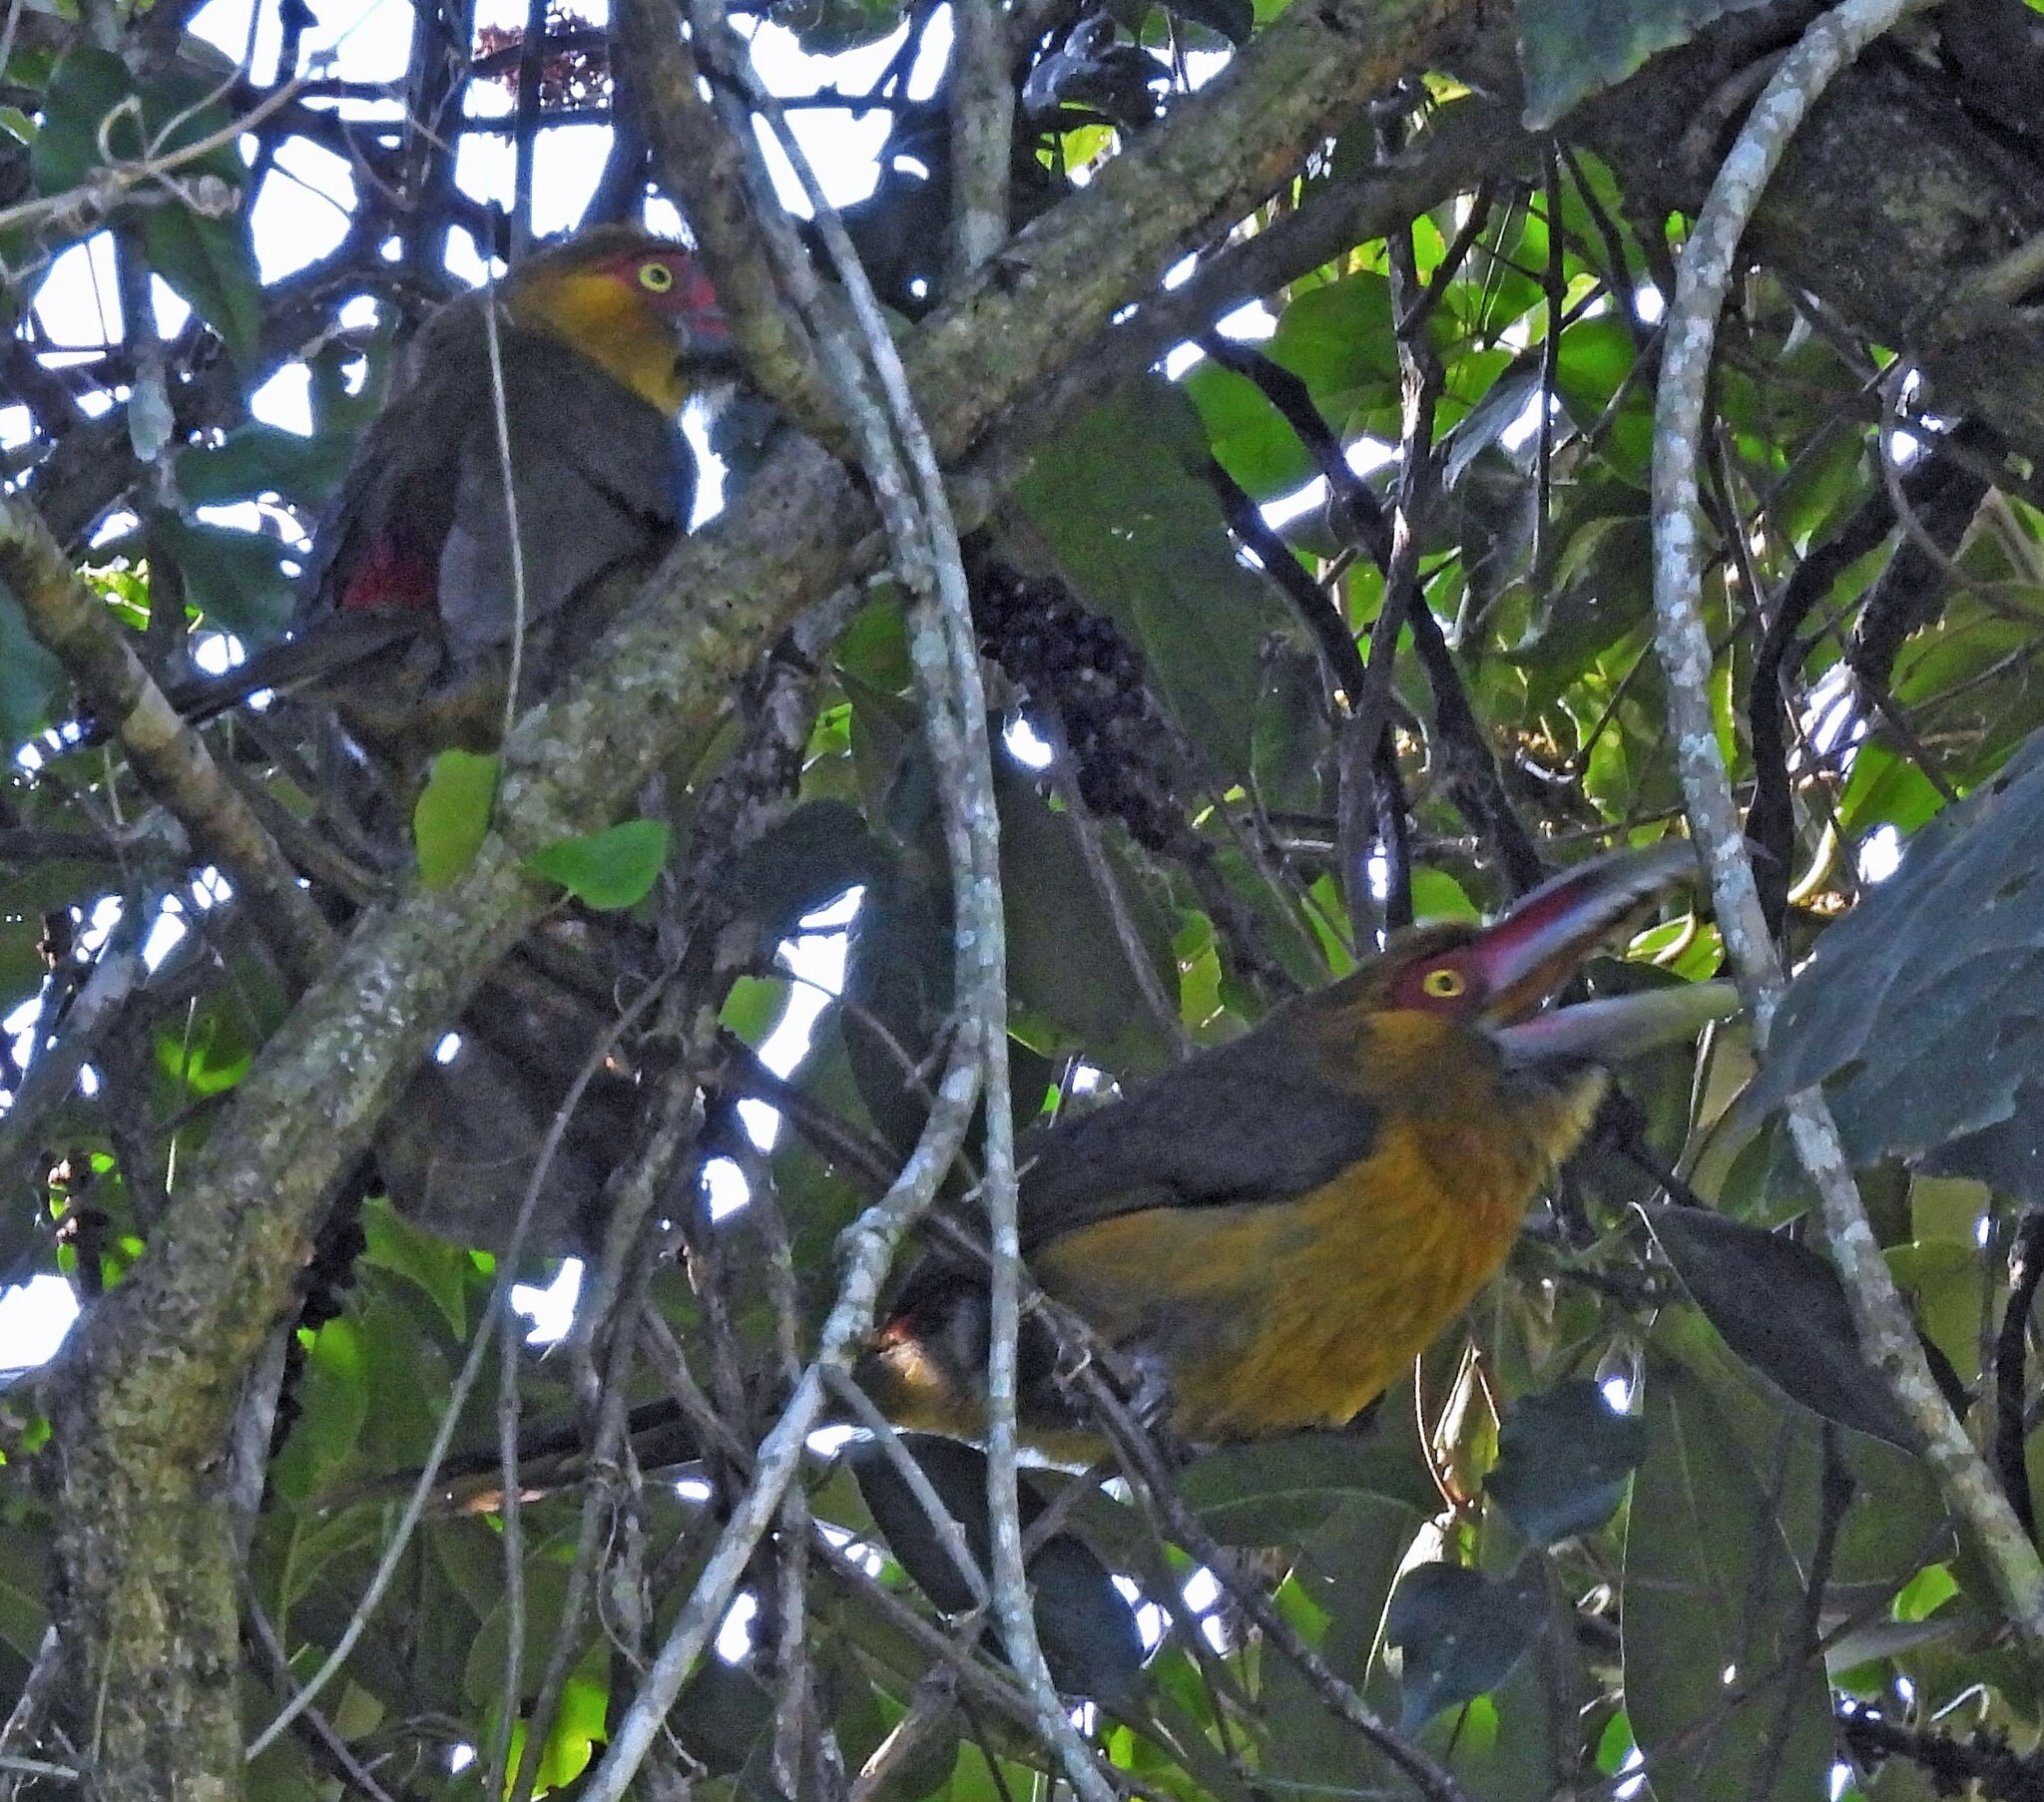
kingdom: Animalia
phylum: Chordata
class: Aves
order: Piciformes
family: Ramphastidae
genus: Pteroglossus
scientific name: Pteroglossus bailloni
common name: Saffron toucanet
